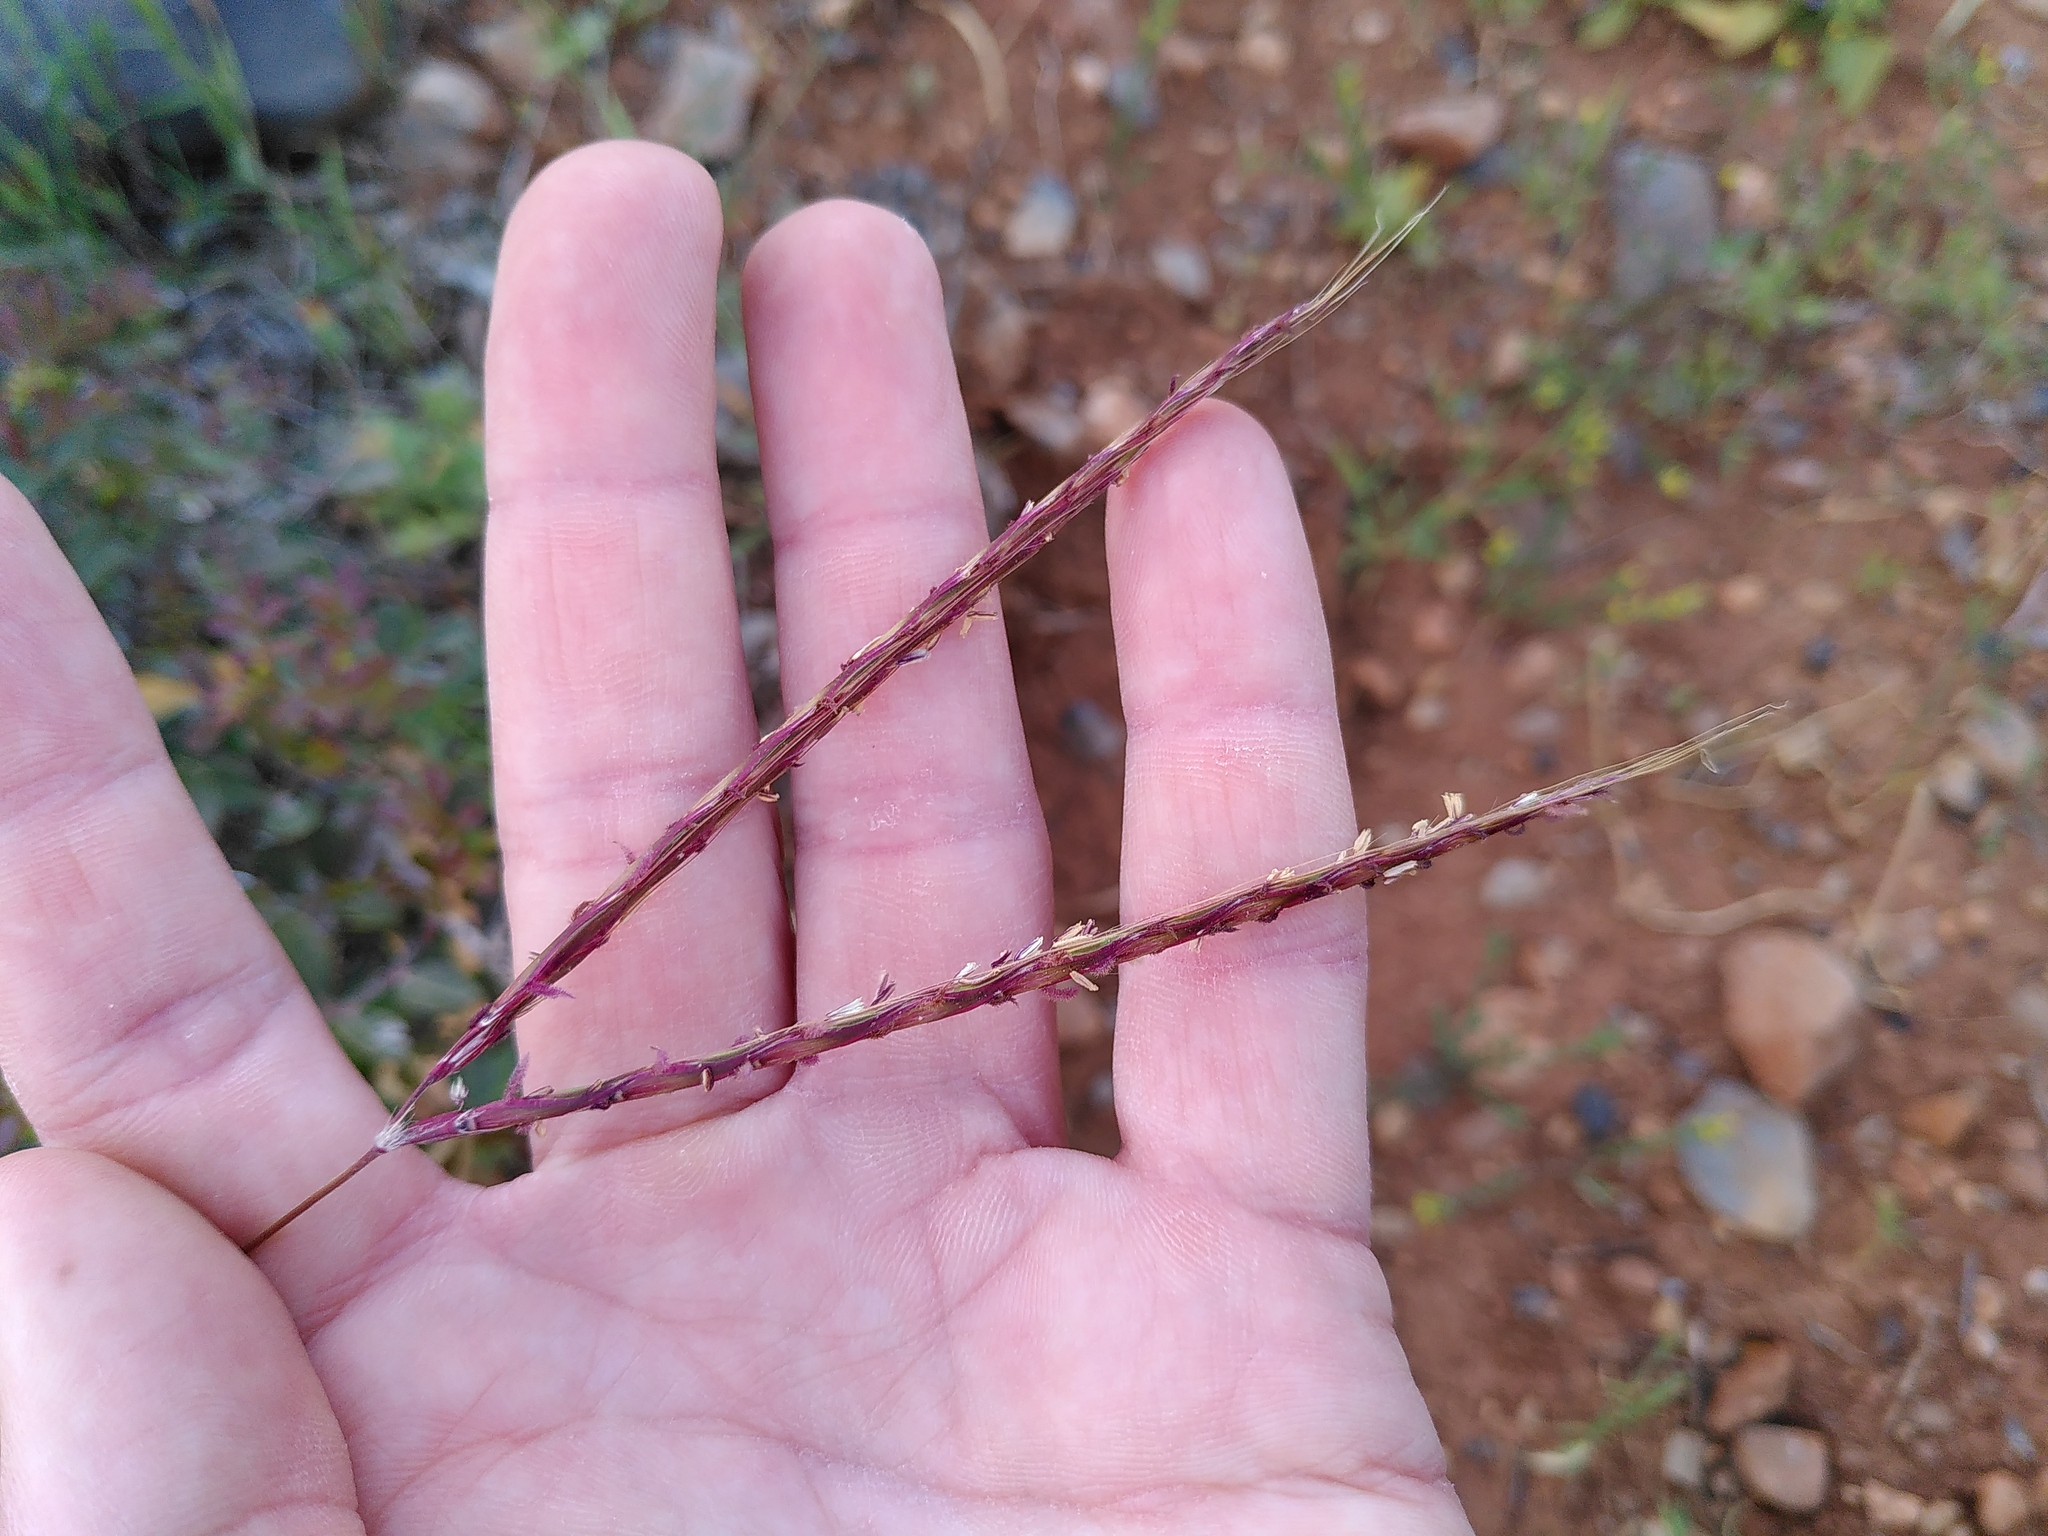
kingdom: Plantae
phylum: Tracheophyta
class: Liliopsida
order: Poales
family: Poaceae
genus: Andropogon
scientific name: Andropogon distachyos
